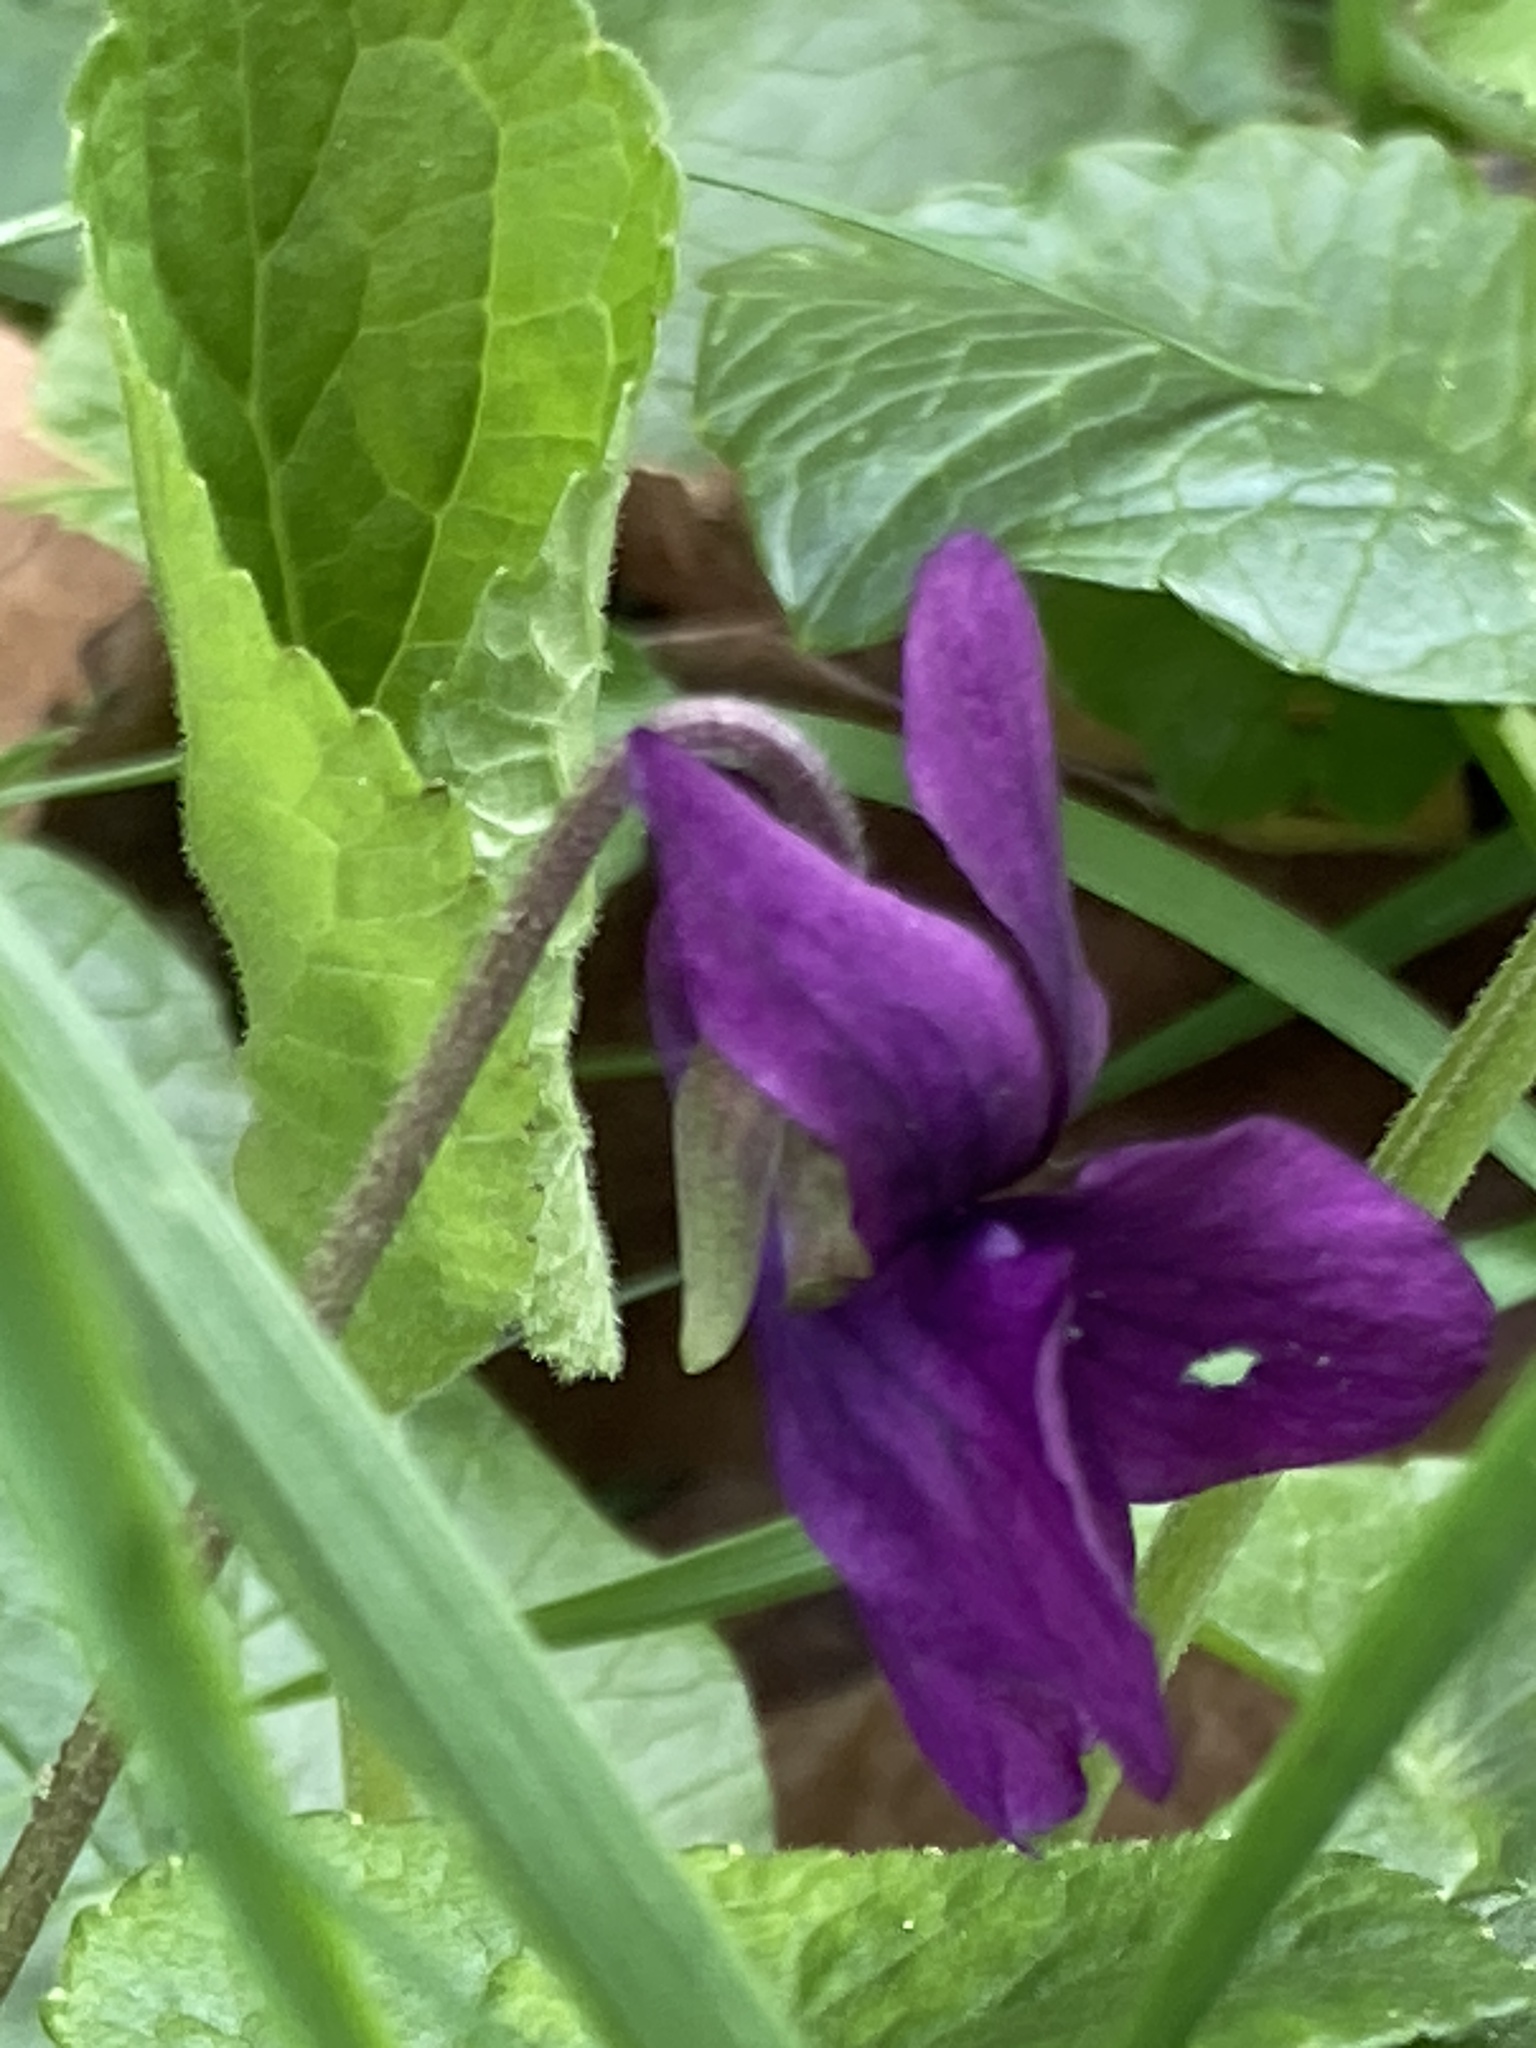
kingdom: Plantae
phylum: Tracheophyta
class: Magnoliopsida
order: Malpighiales
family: Violaceae
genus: Viola
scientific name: Viola odorata
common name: Sweet violet
